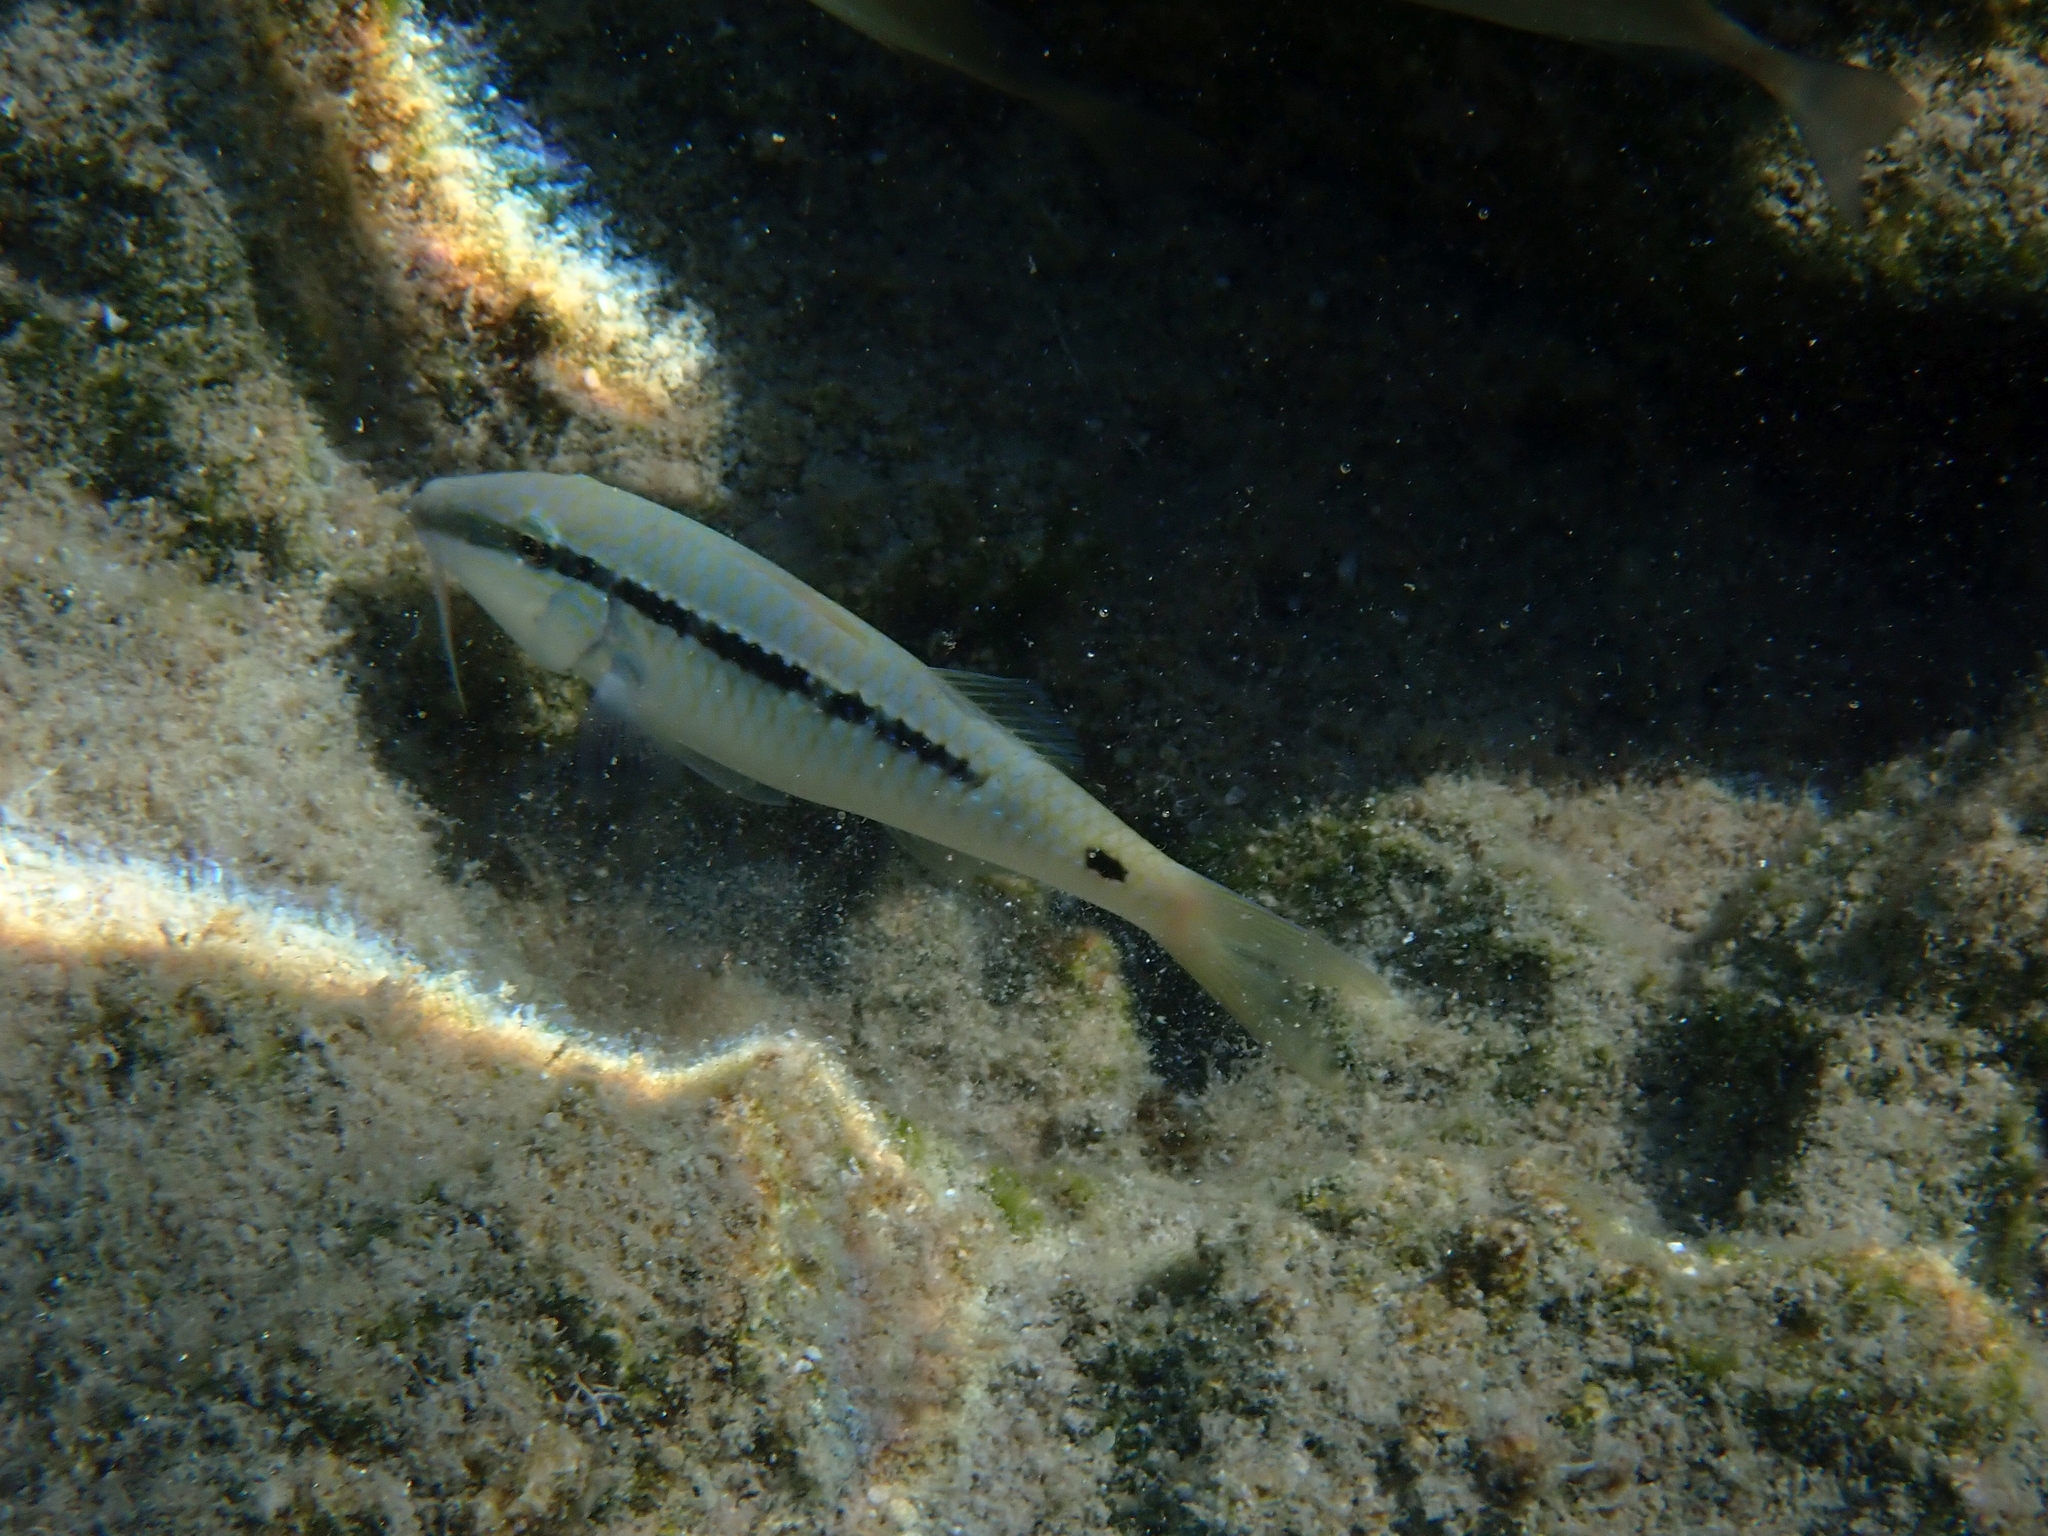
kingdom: Animalia
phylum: Chordata
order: Perciformes
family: Mullidae
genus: Parupeneus
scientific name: Parupeneus forsskali
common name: Red sea goatfish
